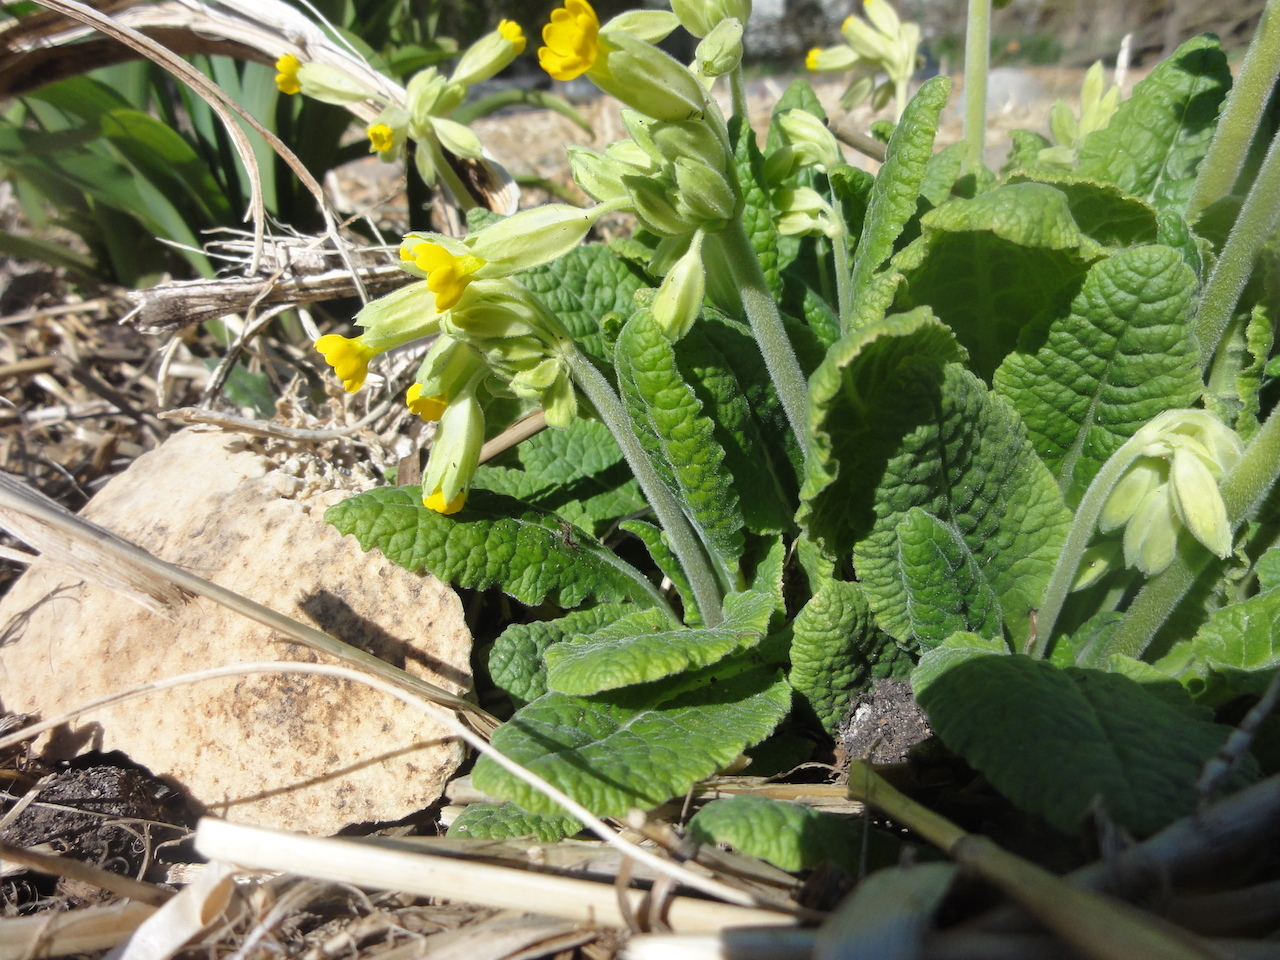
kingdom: Plantae
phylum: Tracheophyta
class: Magnoliopsida
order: Ericales
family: Primulaceae
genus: Primula
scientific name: Primula veris
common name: Cowslip
